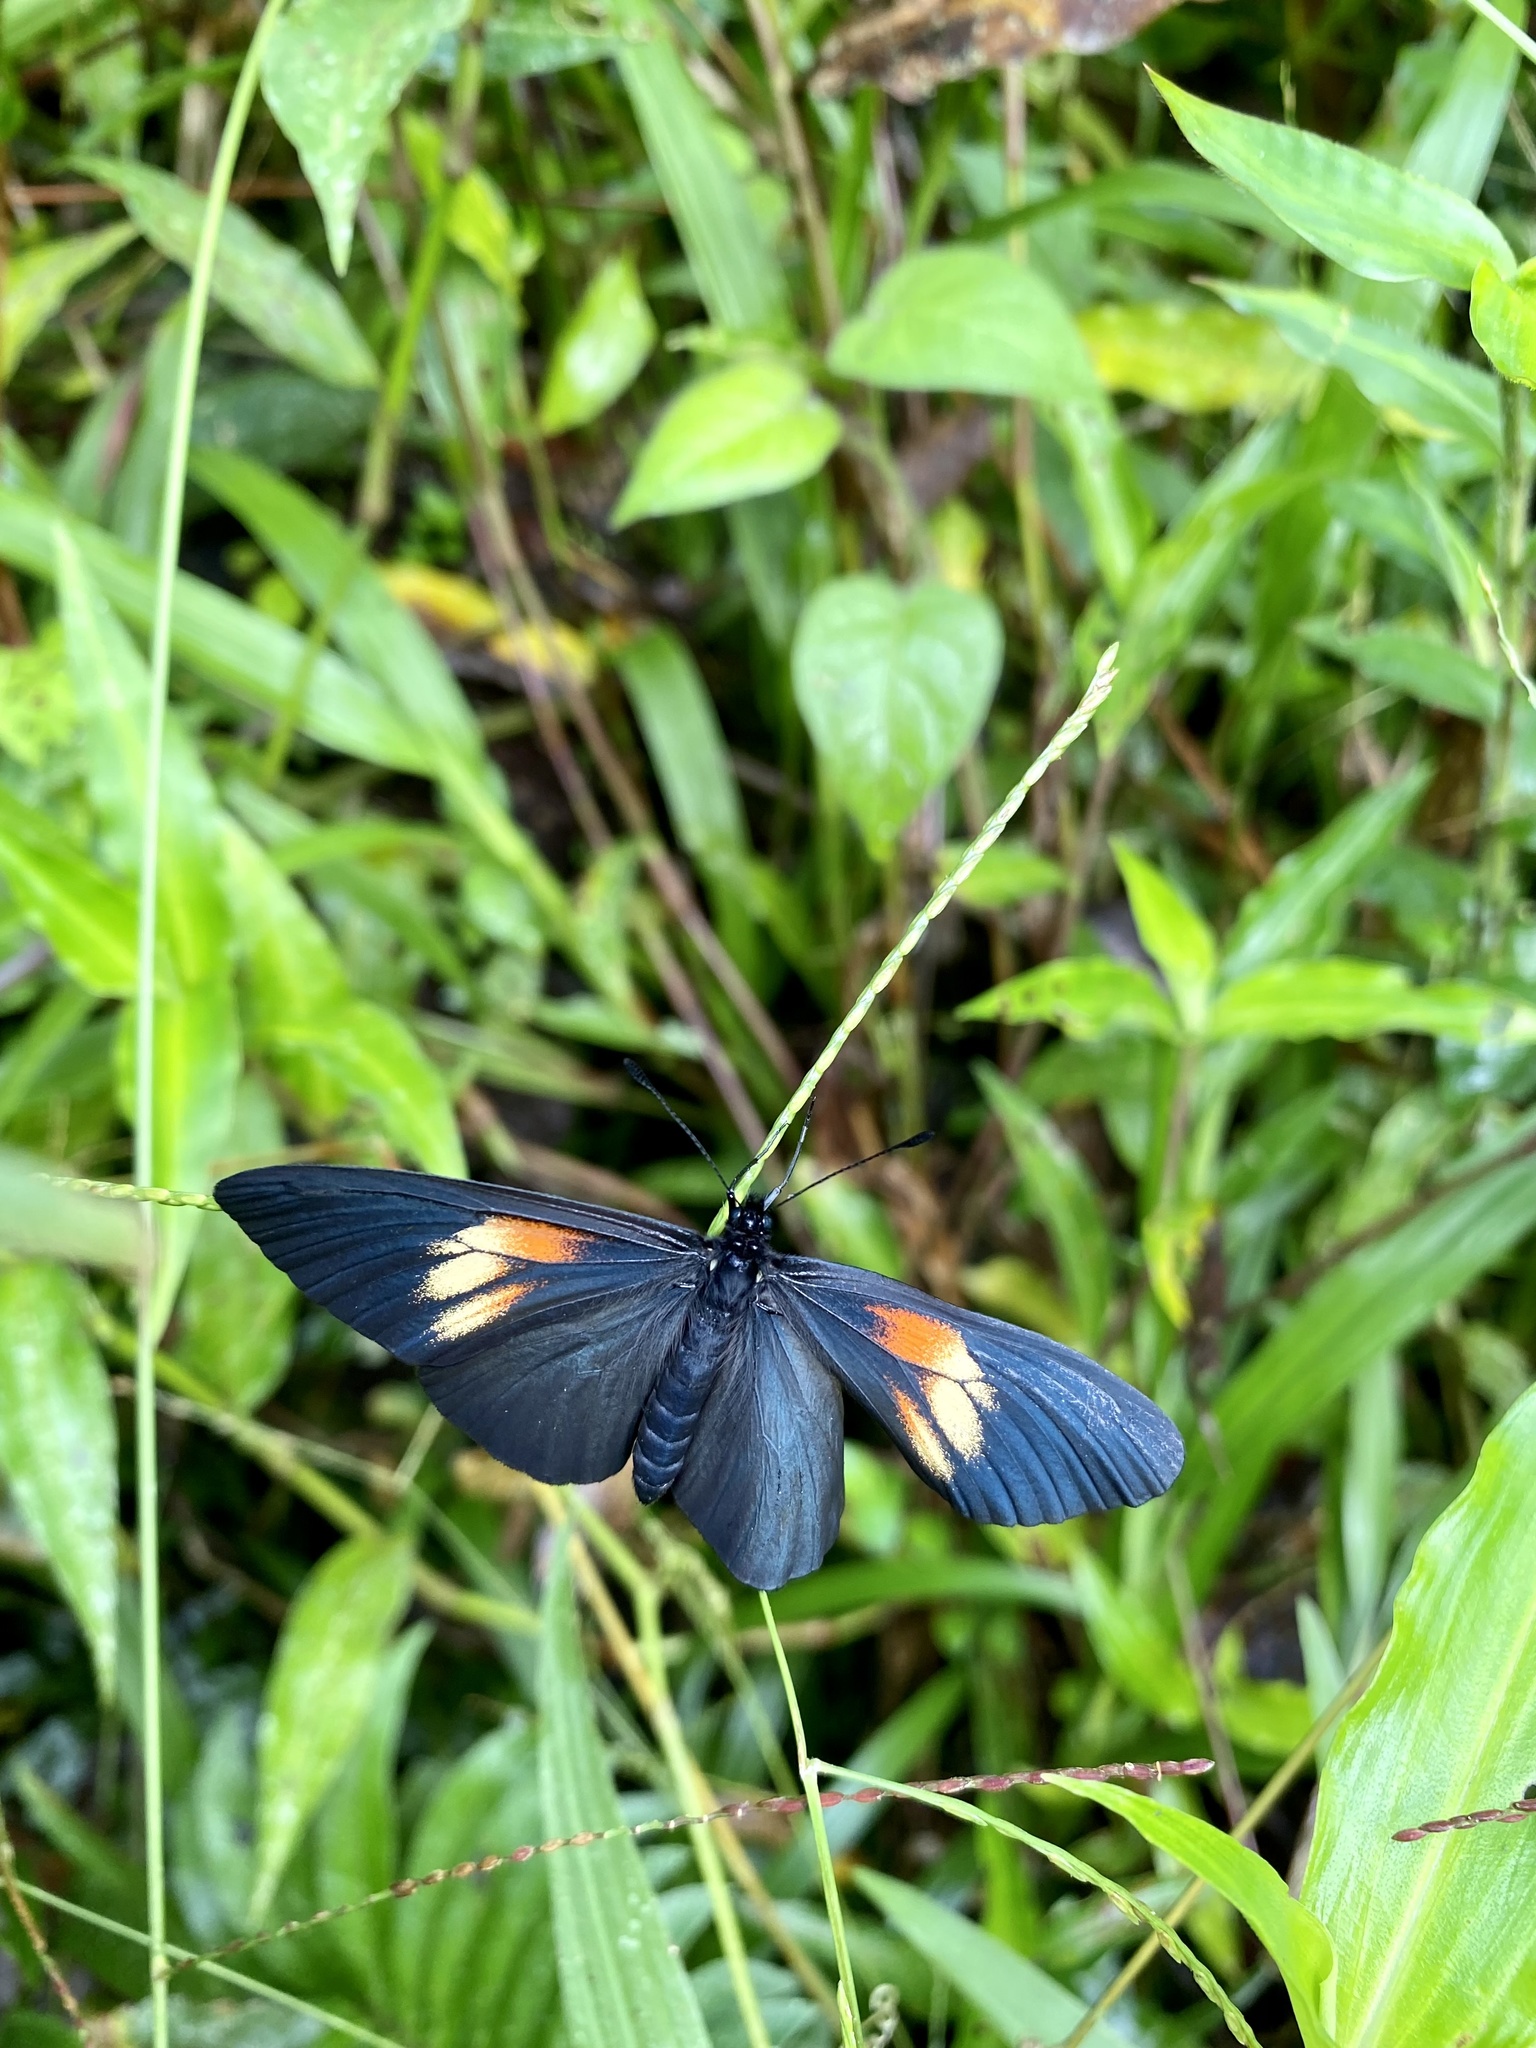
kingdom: Animalia
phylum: Arthropoda
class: Insecta
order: Lepidoptera
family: Nymphalidae
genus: Acraea
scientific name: Acraea Altinote ozomene
